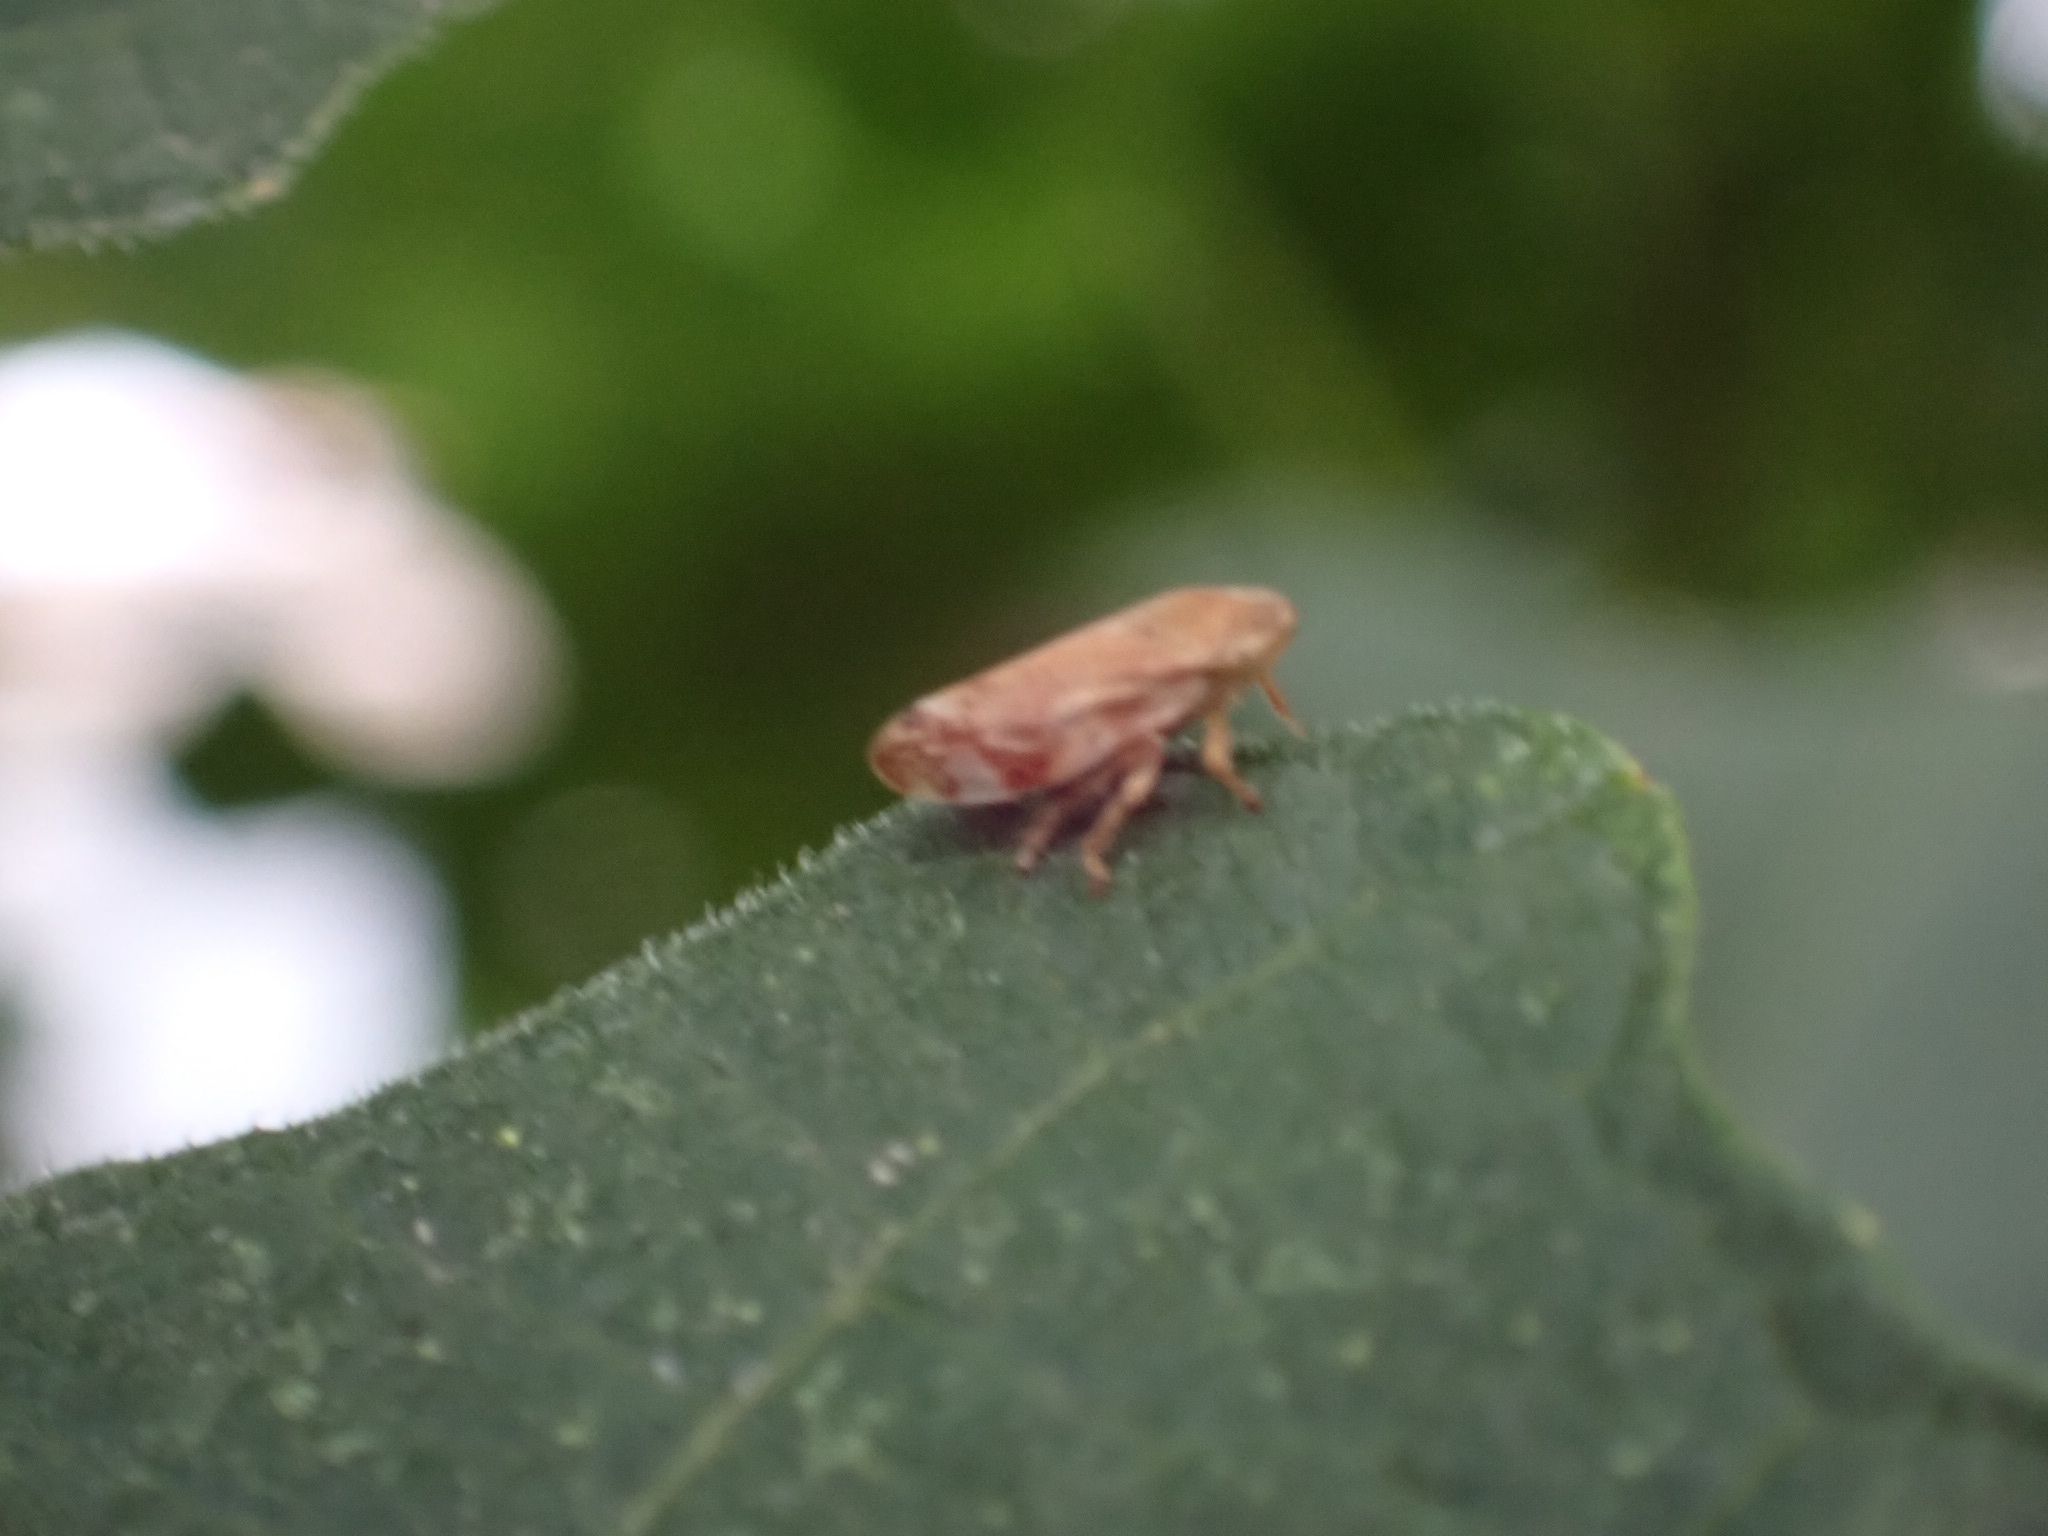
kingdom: Animalia
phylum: Arthropoda
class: Insecta
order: Hemiptera
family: Aphrophoridae
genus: Philaenus
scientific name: Philaenus spumarius
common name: Meadow spittlebug
